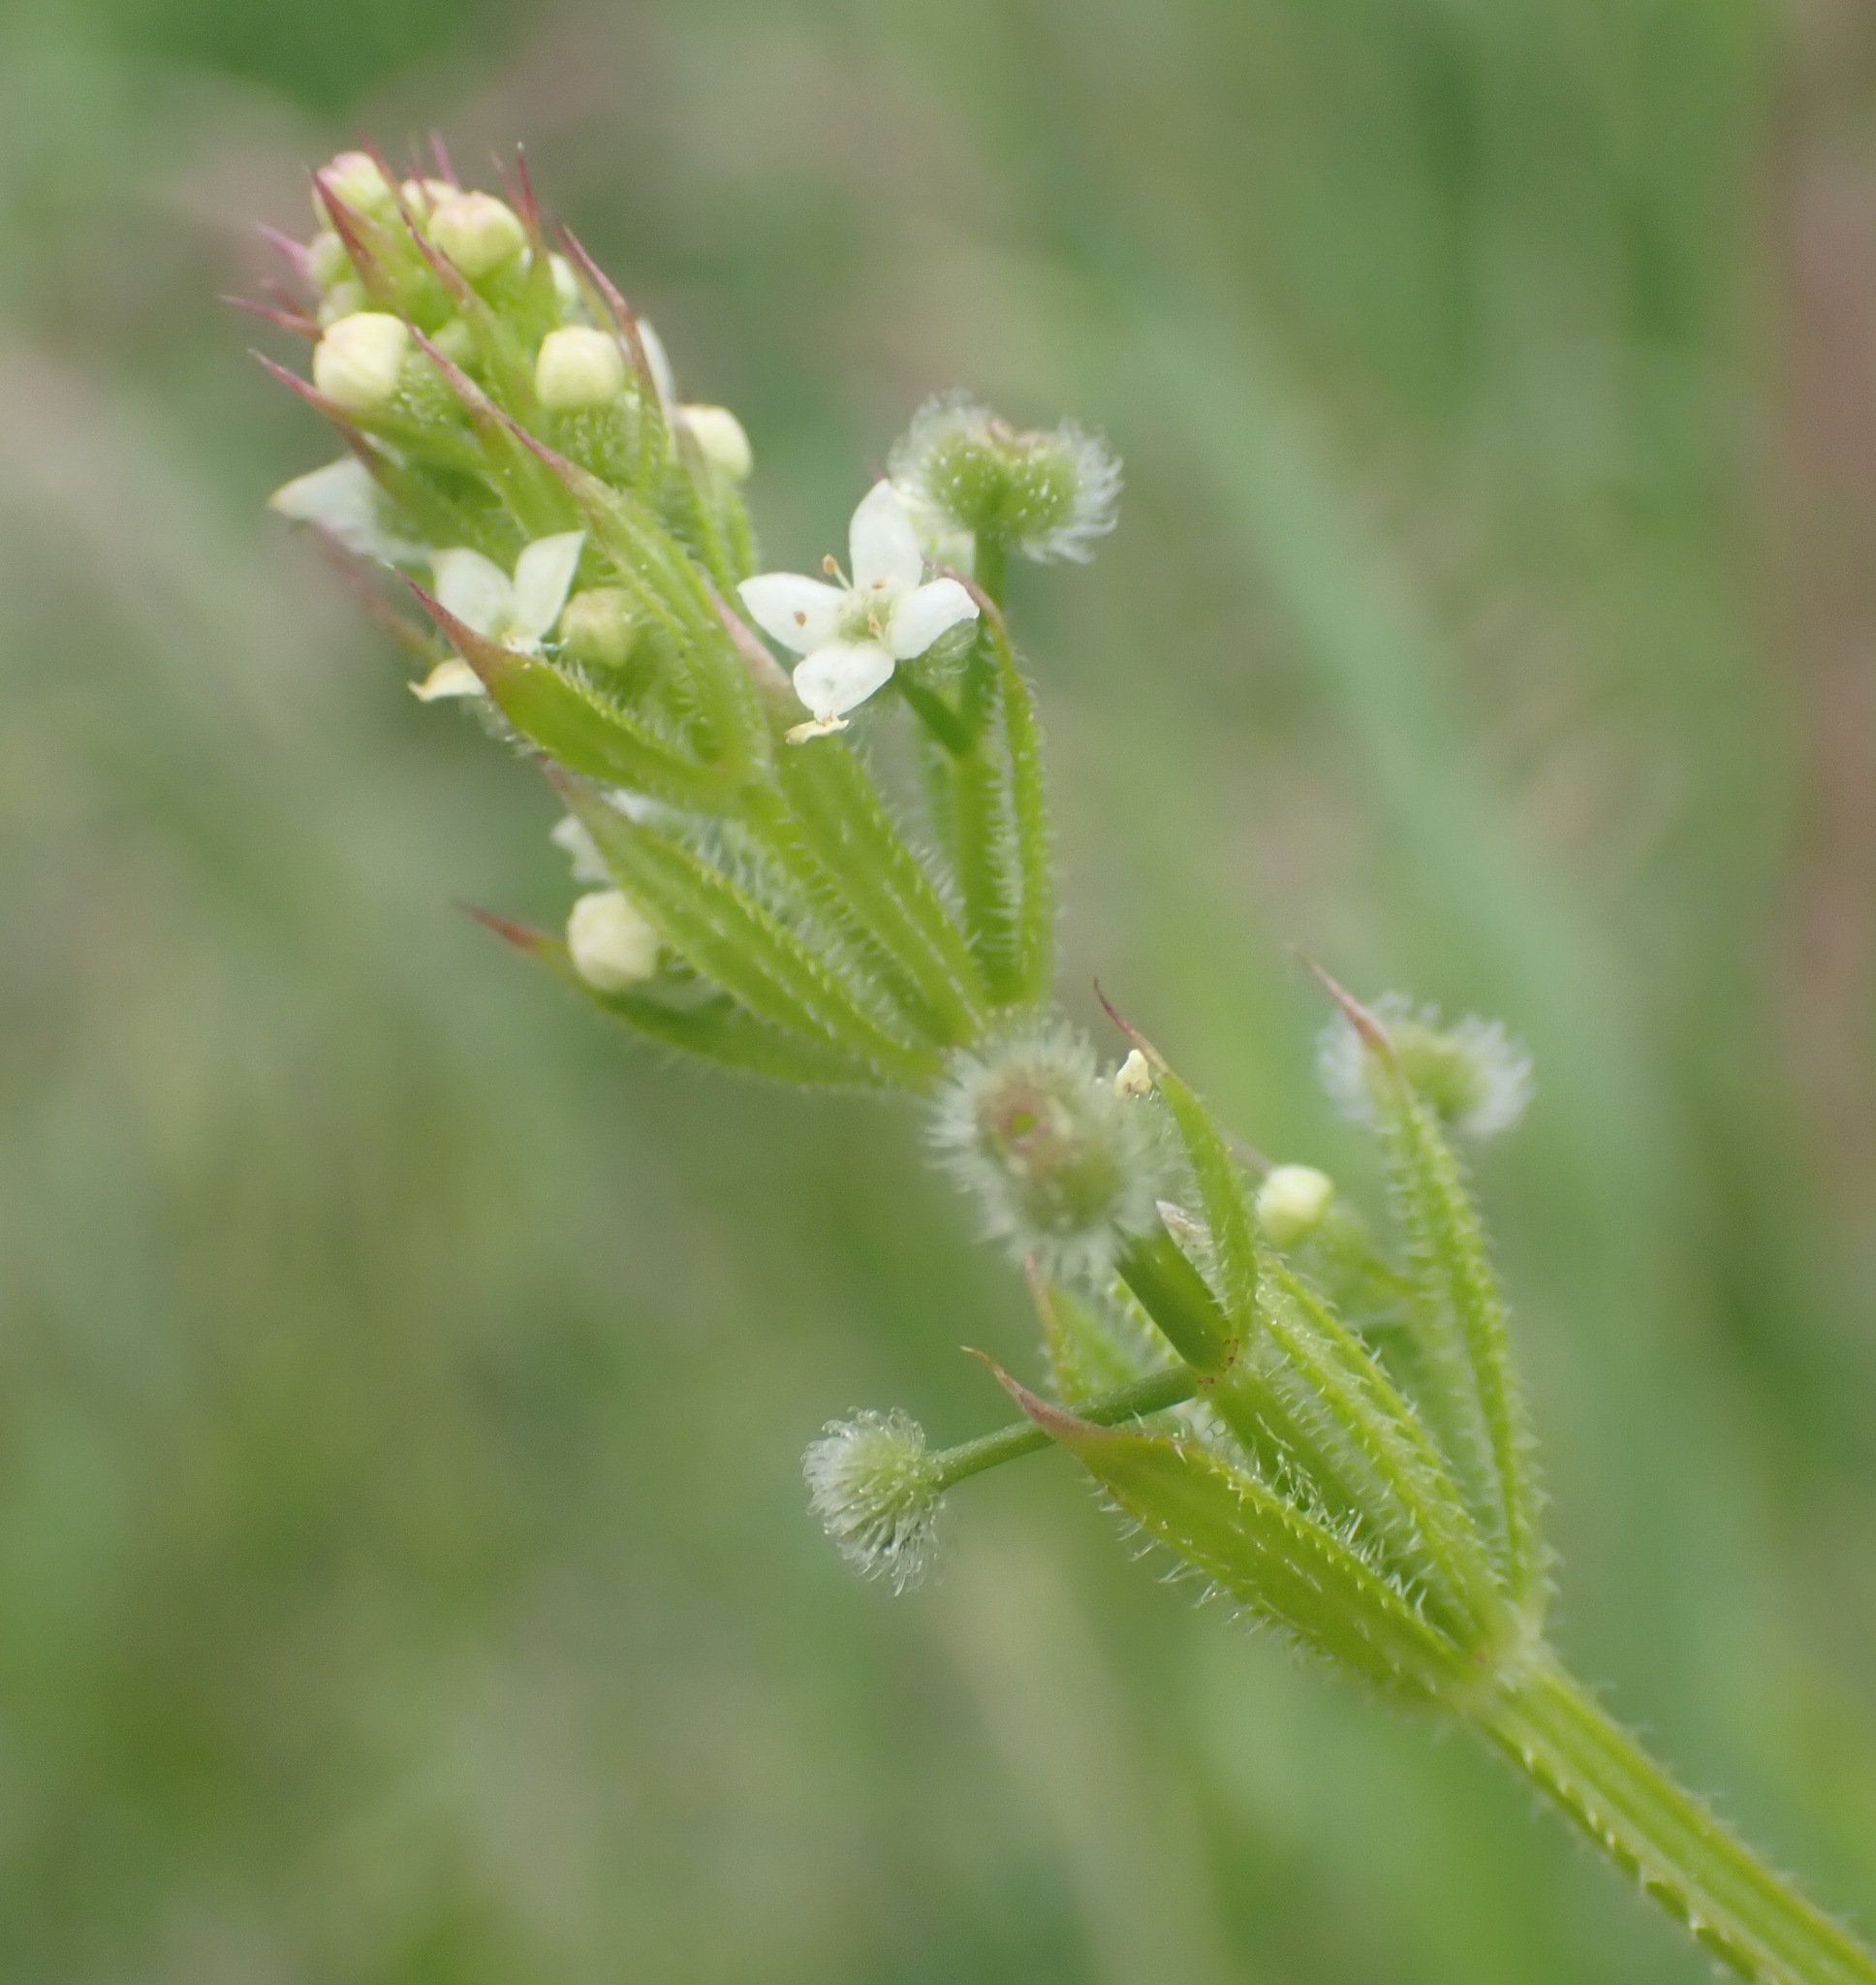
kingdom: Plantae
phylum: Tracheophyta
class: Magnoliopsida
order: Gentianales
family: Rubiaceae
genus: Galium
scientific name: Galium aparine
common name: Cleavers
